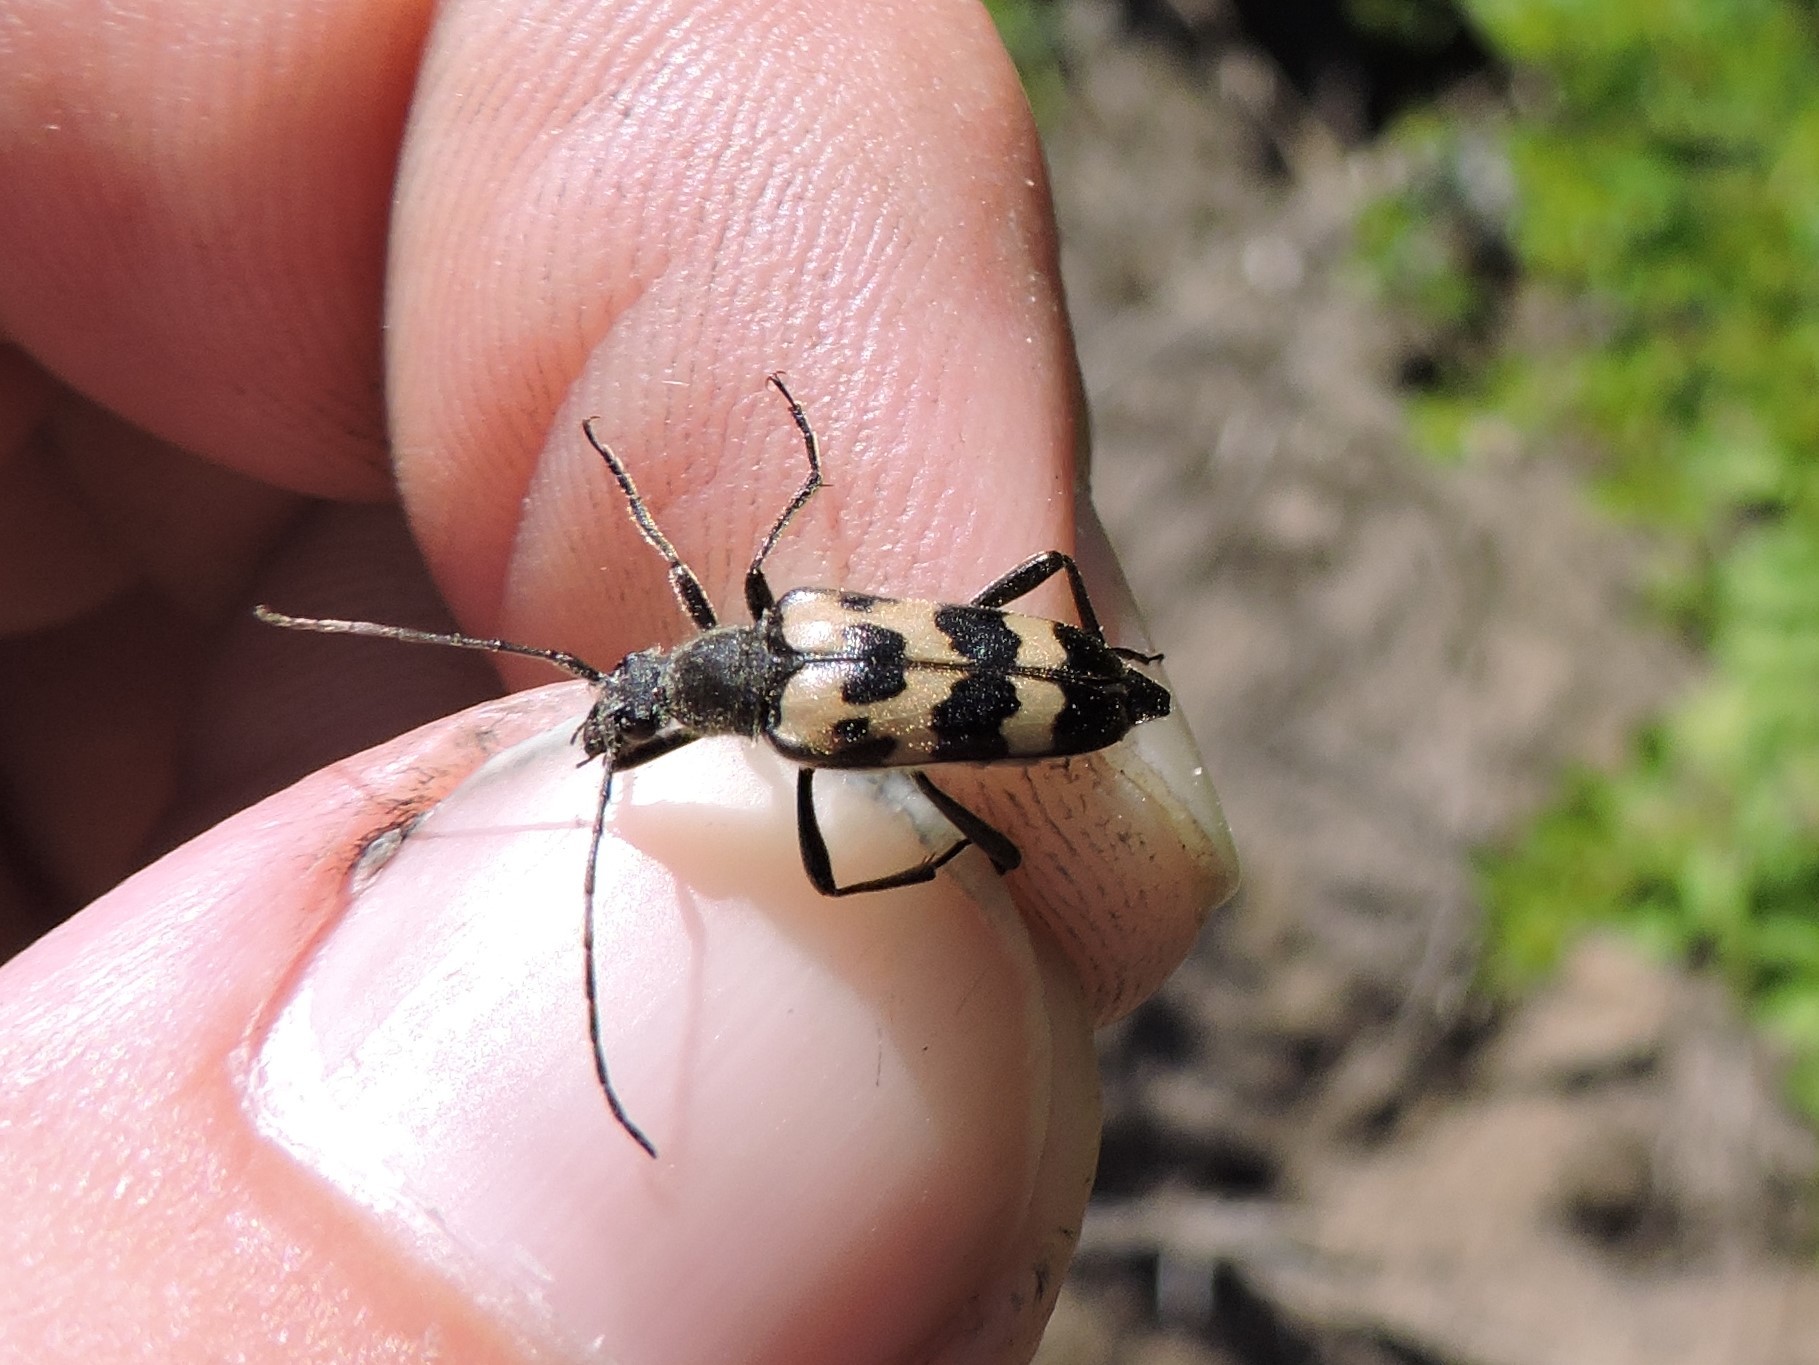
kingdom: Animalia
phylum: Arthropoda
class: Insecta
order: Coleoptera
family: Cerambycidae
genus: Judolia
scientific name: Judolia sexmaculata
